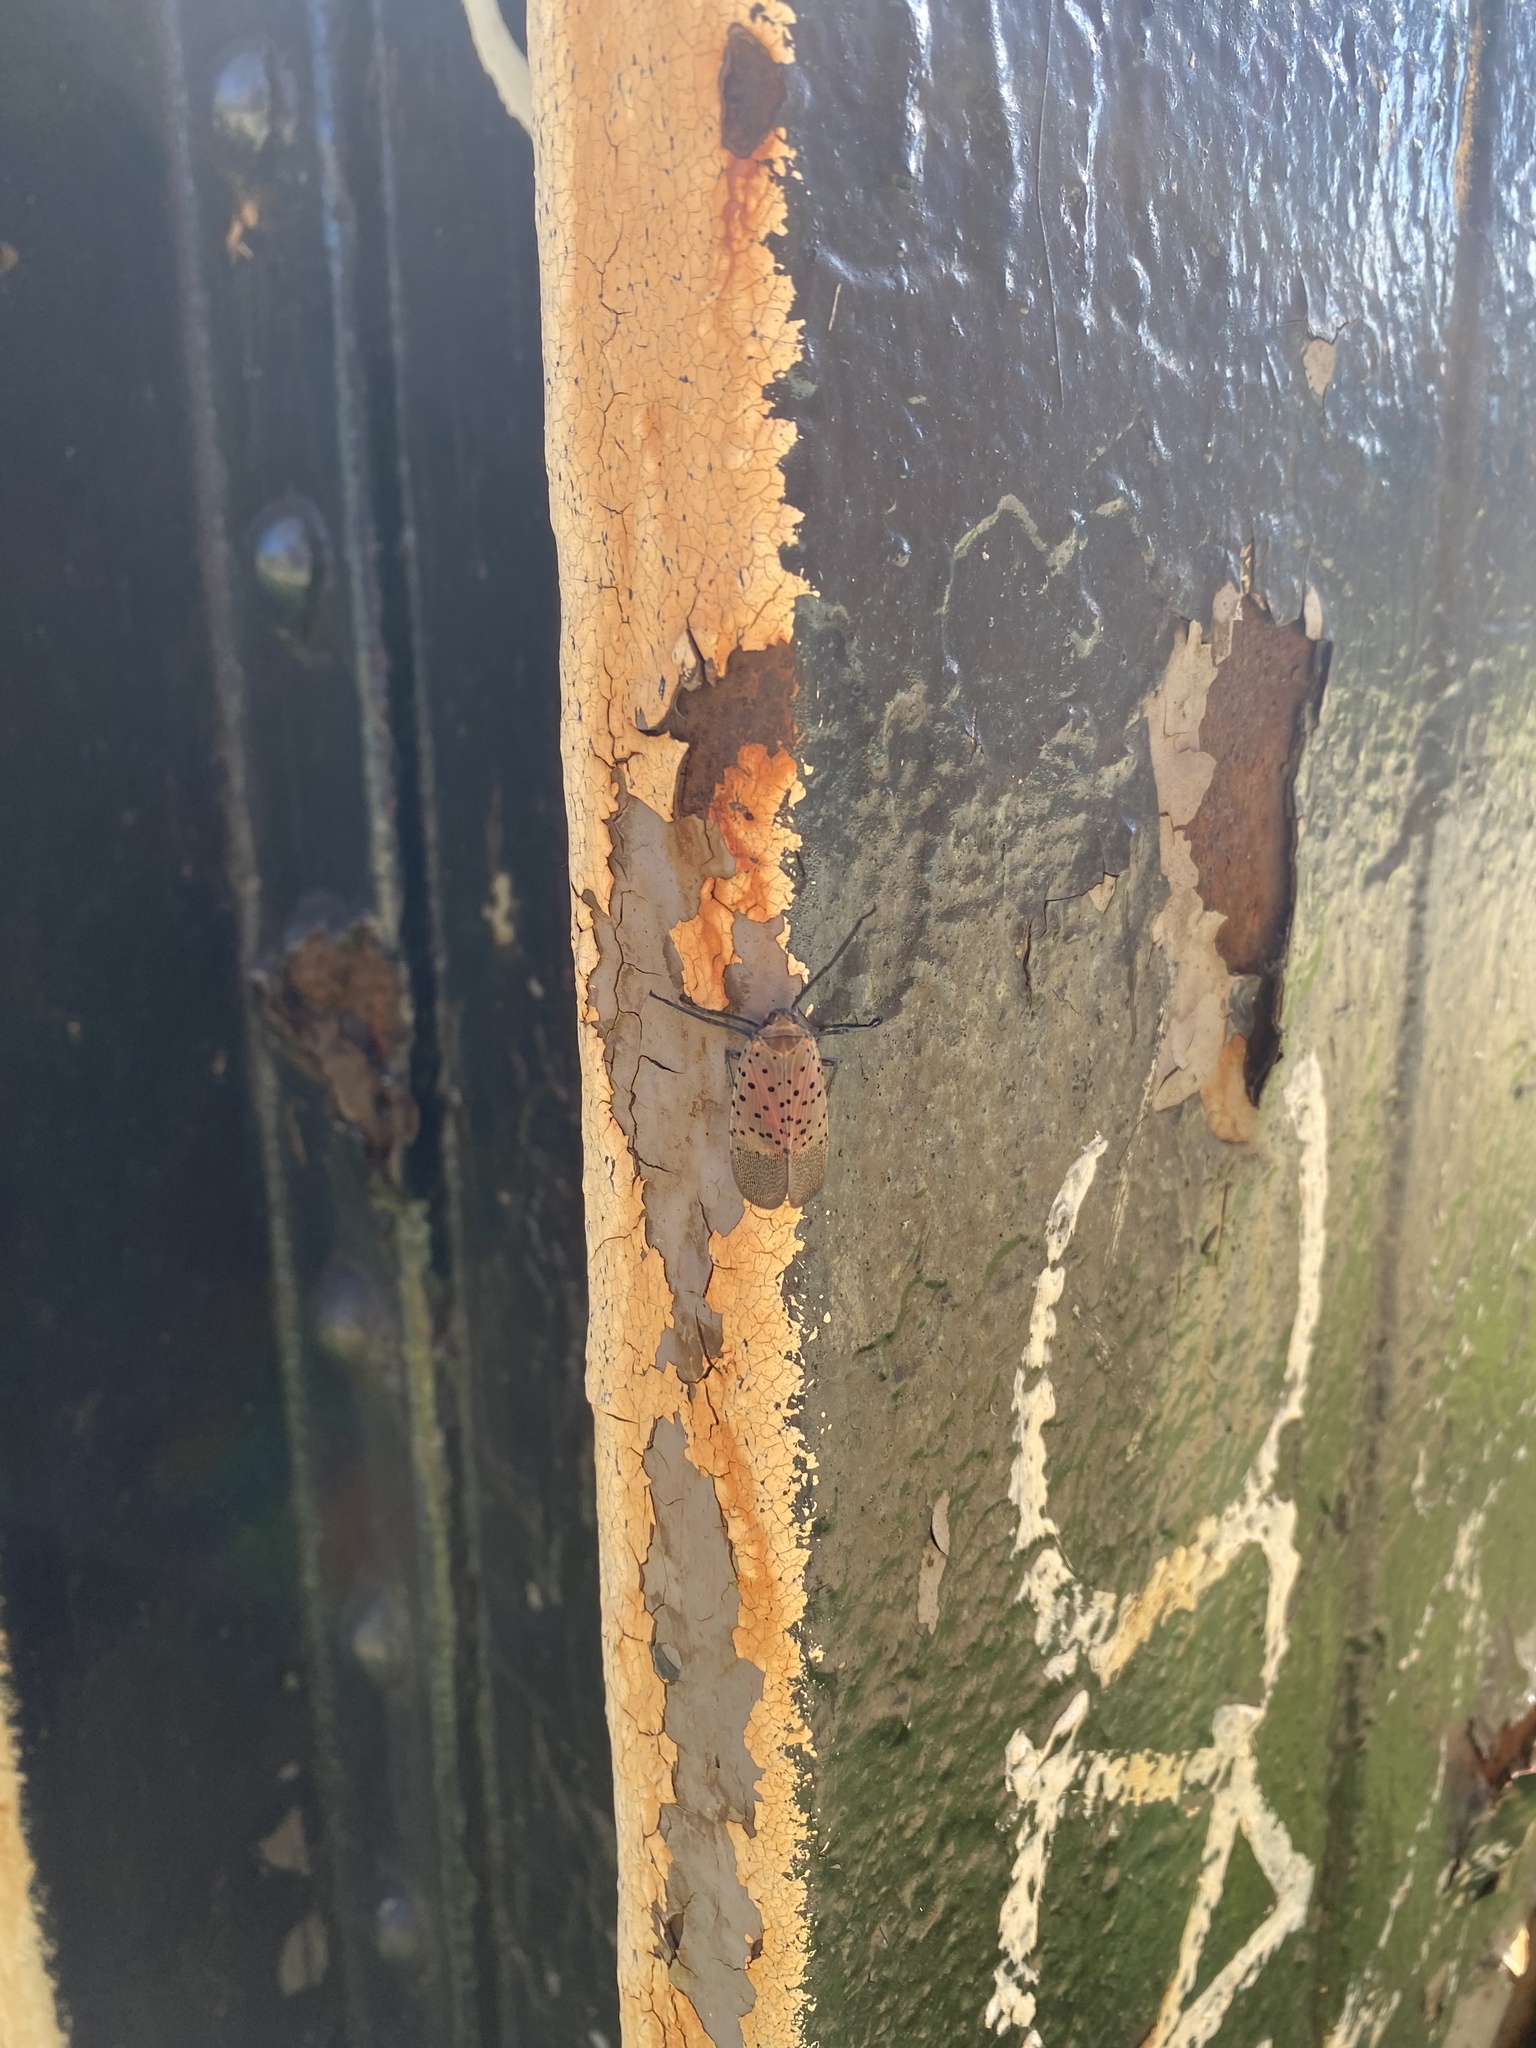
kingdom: Animalia
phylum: Arthropoda
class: Insecta
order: Hemiptera
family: Fulgoridae
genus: Lycorma
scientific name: Lycorma delicatula
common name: Spotted lanternfly
